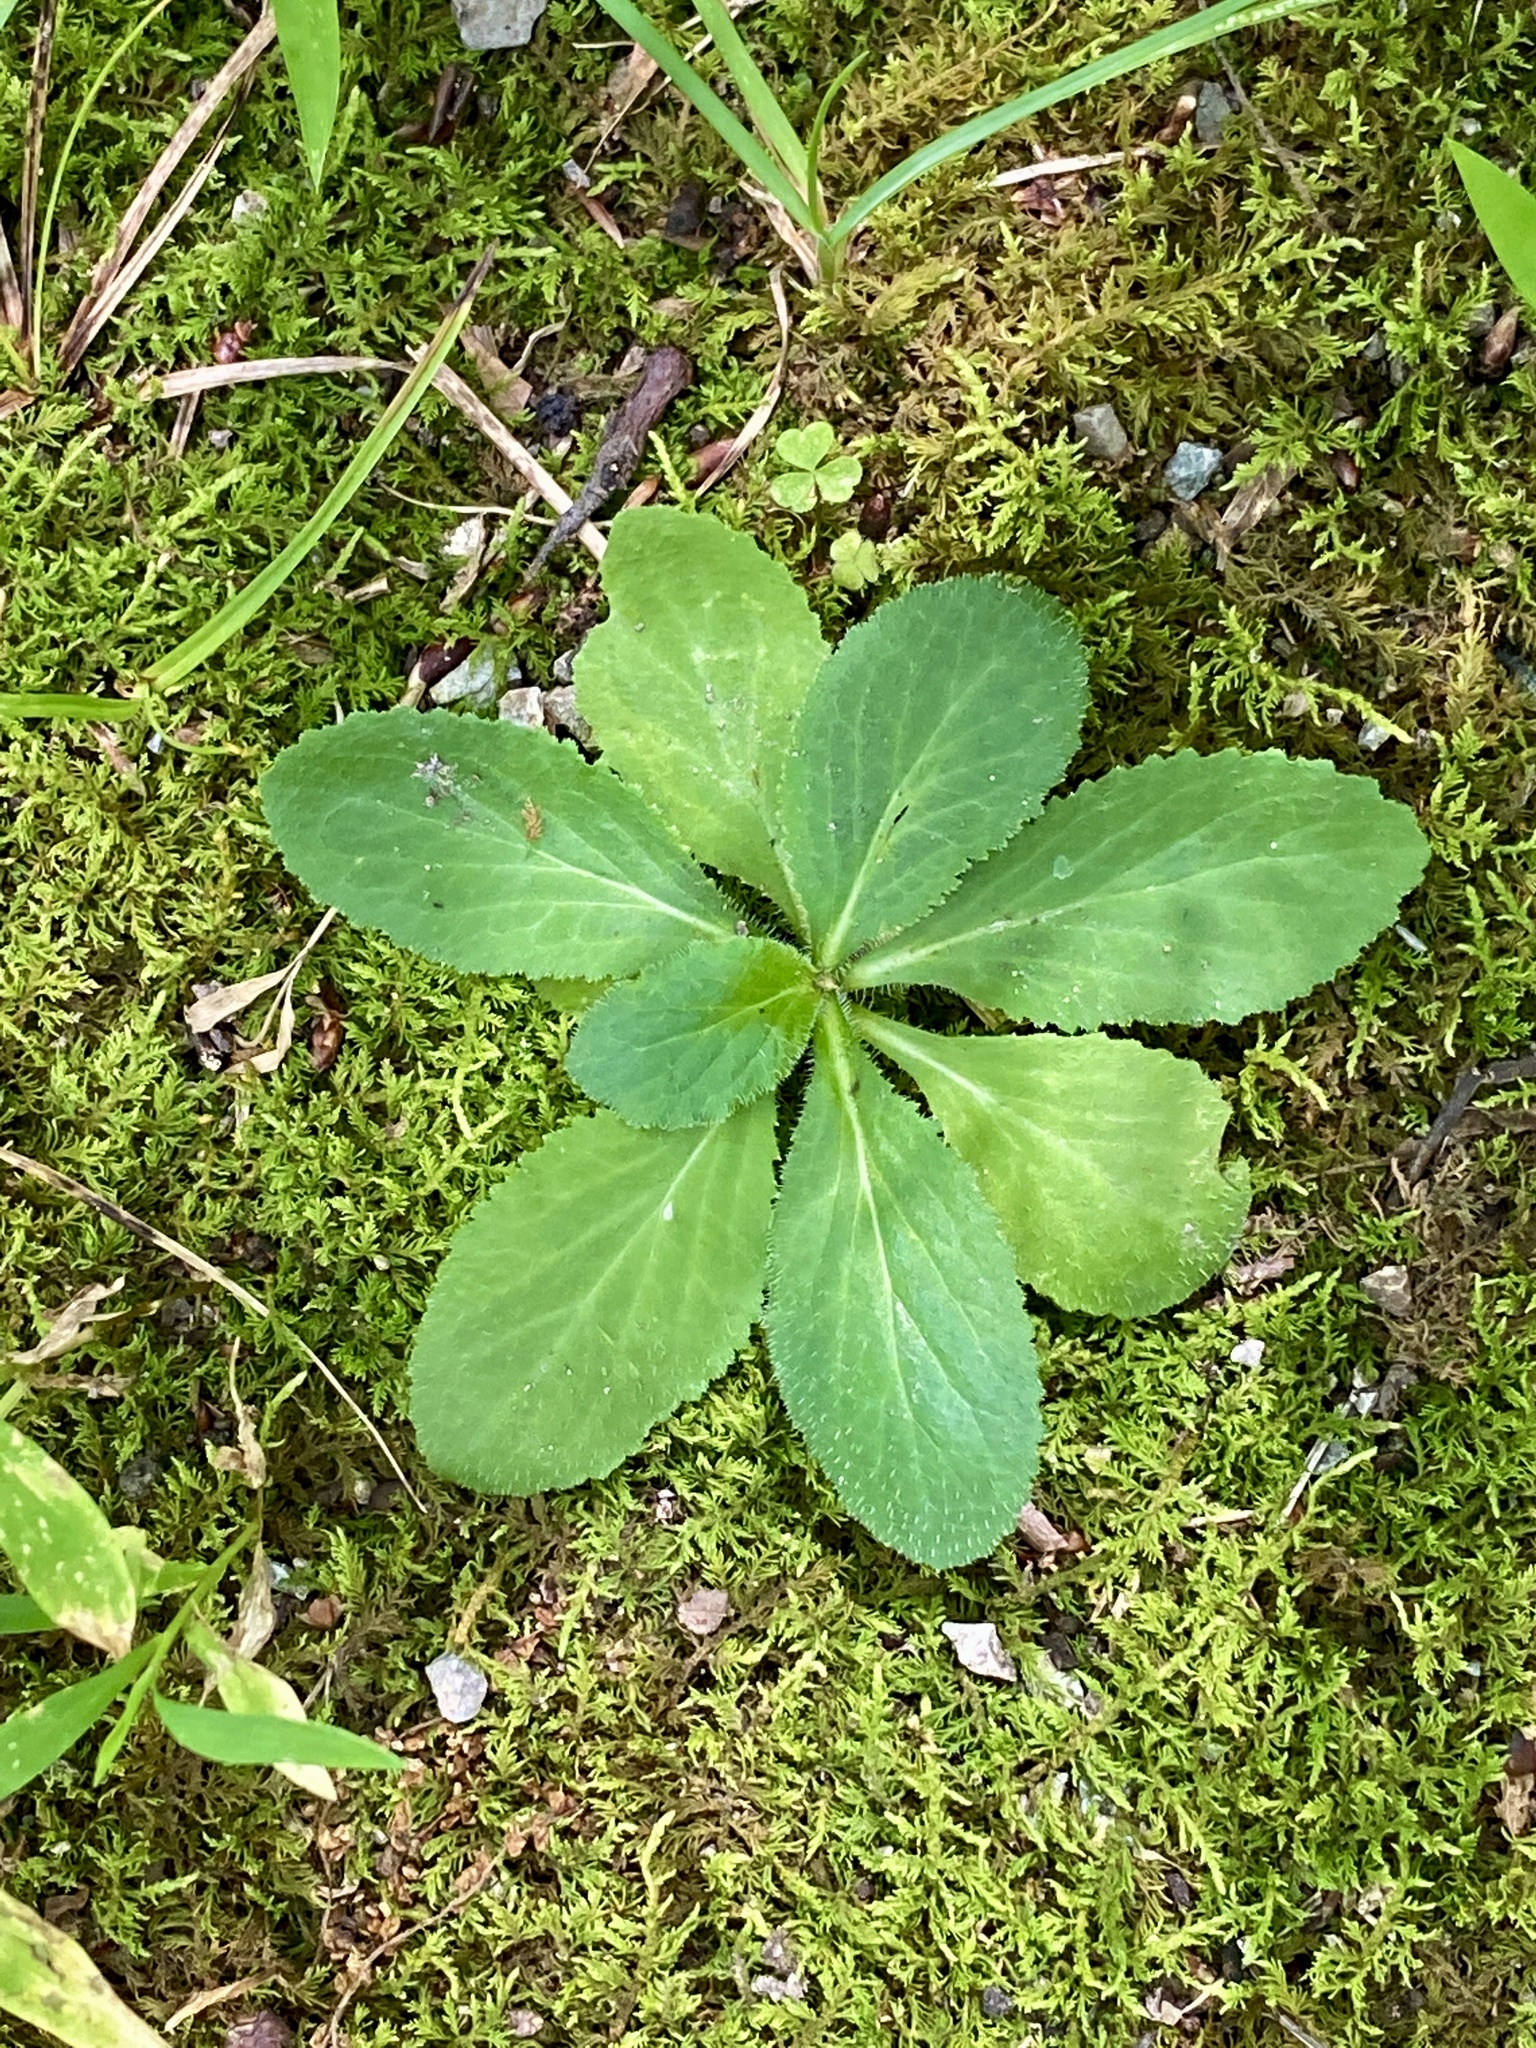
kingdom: Plantae
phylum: Tracheophyta
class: Magnoliopsida
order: Asterales
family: Campanulaceae
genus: Lobelia
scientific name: Lobelia inflata
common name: Indian tobacco
